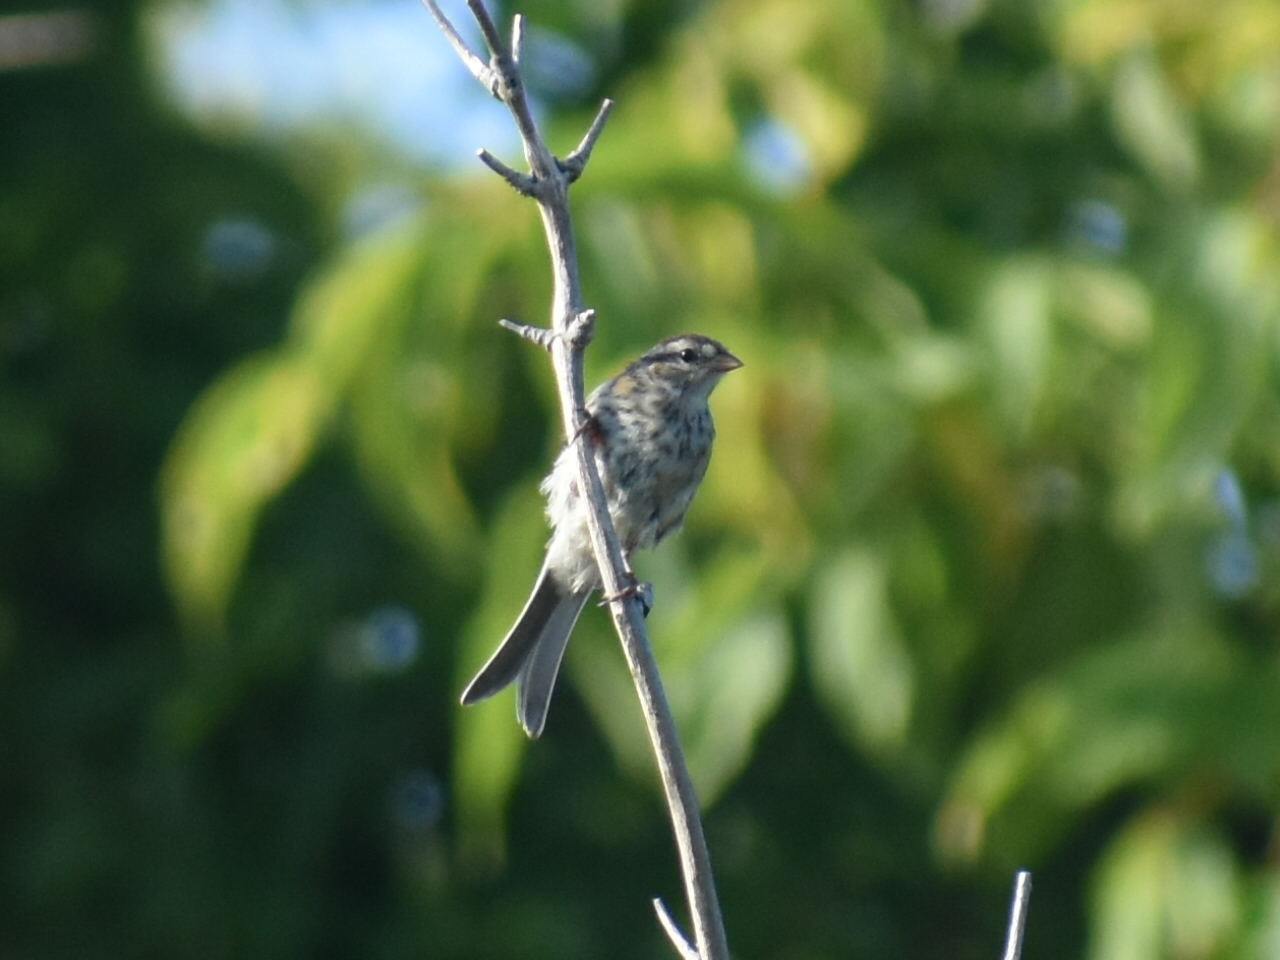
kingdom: Animalia
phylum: Chordata
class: Aves
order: Passeriformes
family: Passerellidae
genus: Spizella
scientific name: Spizella passerina
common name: Chipping sparrow
